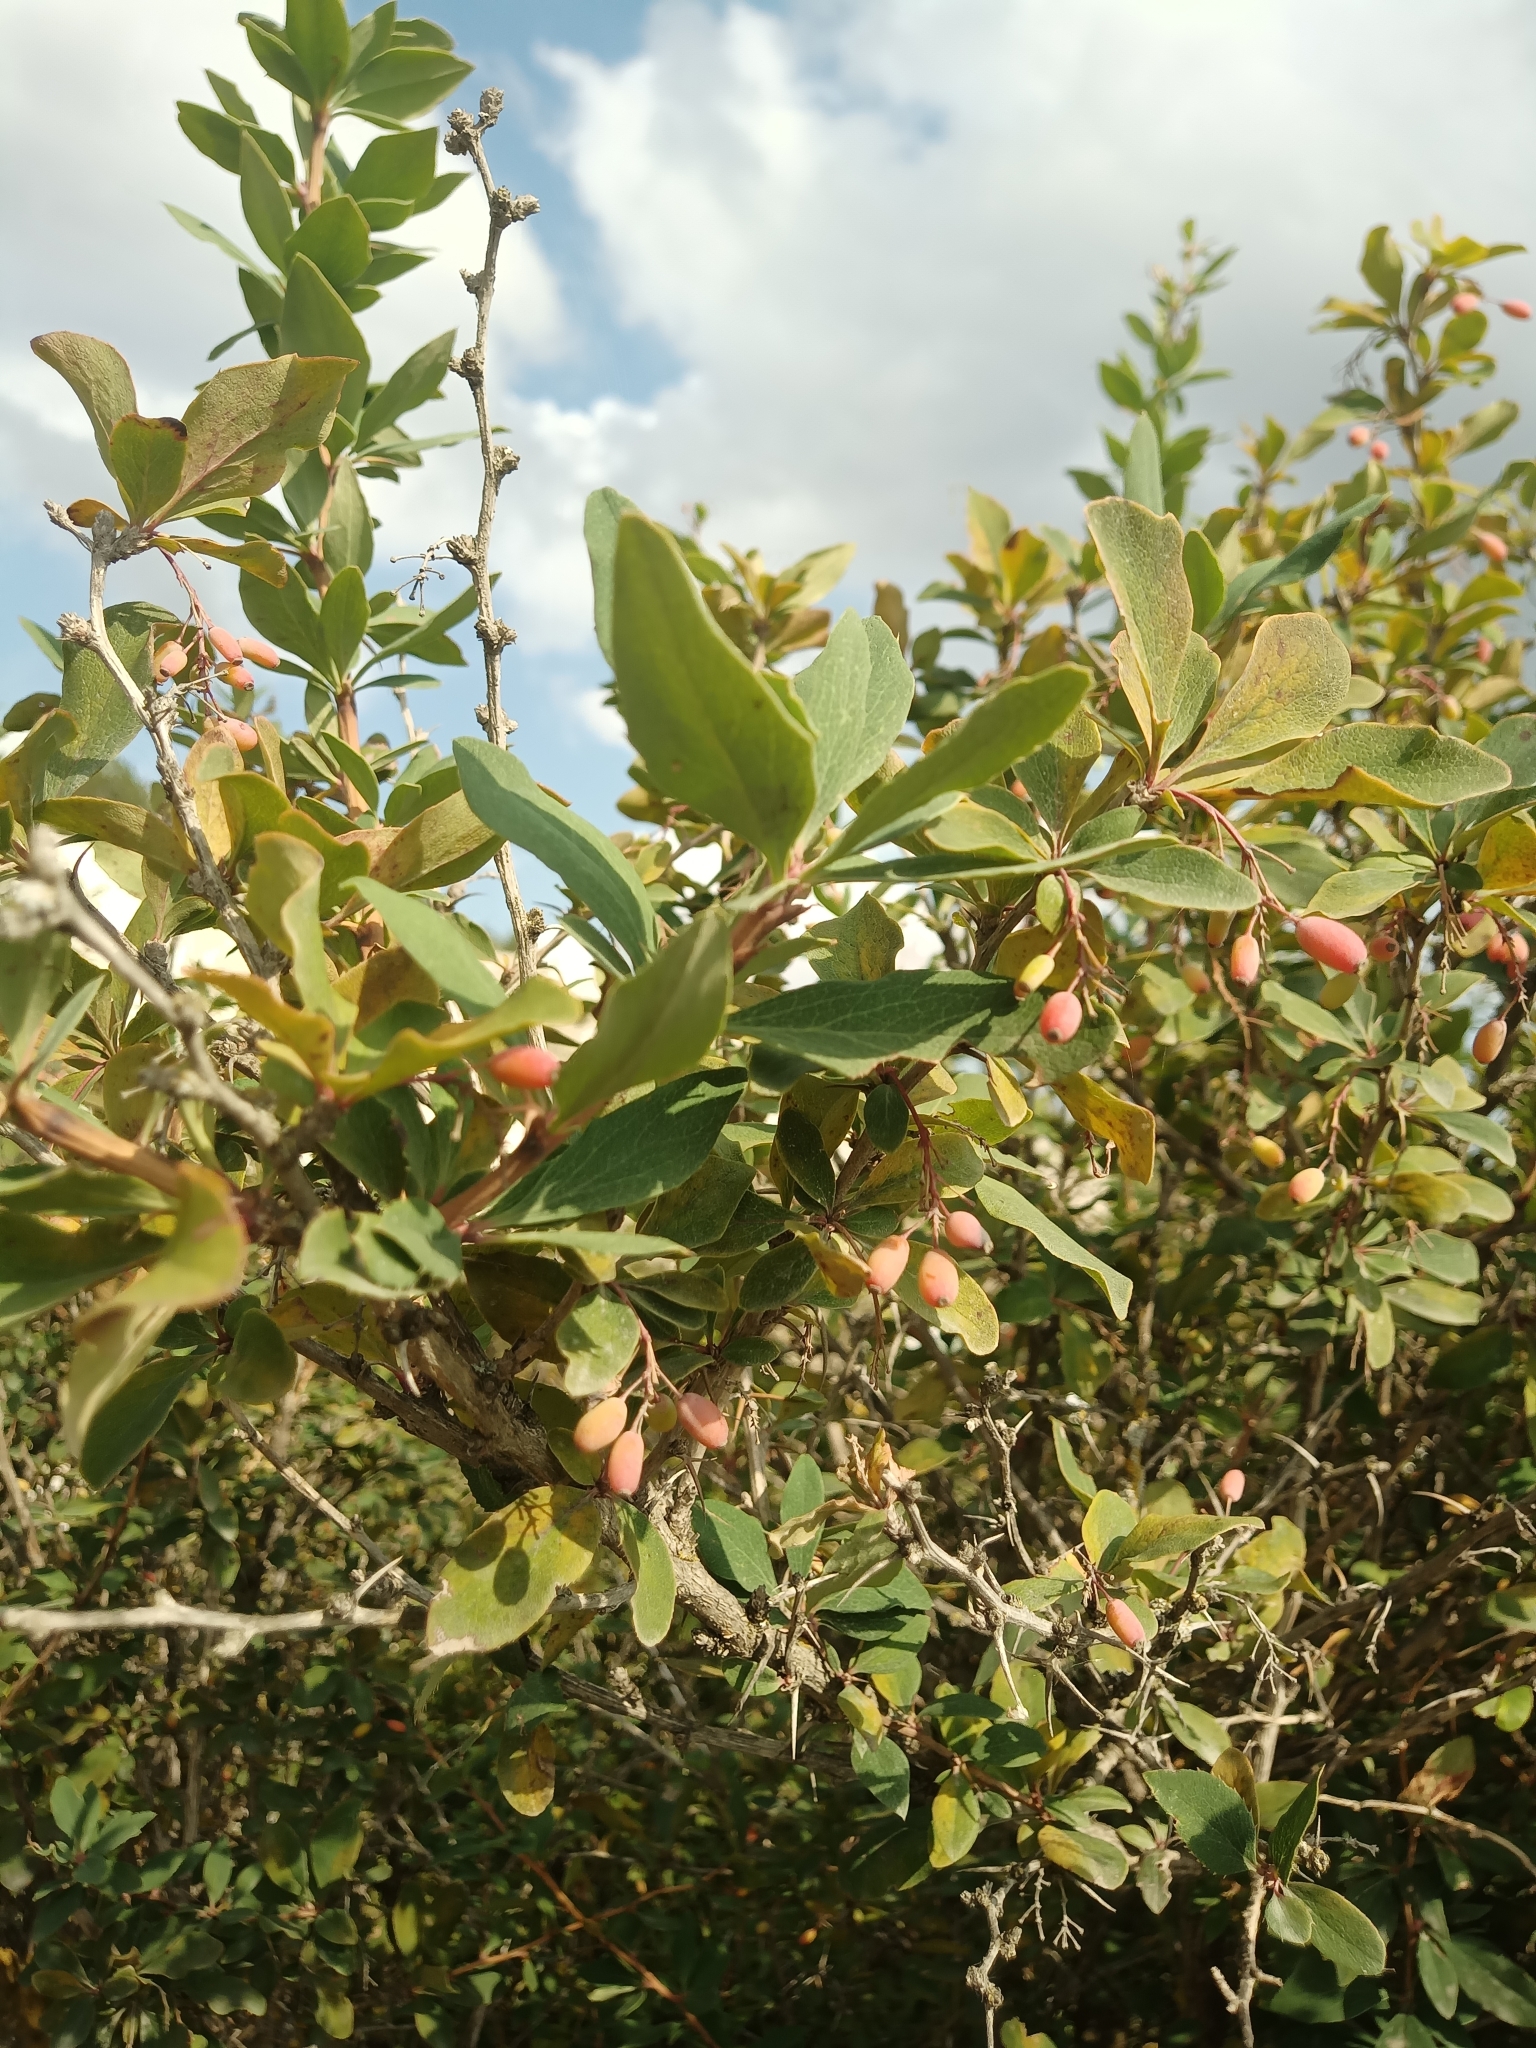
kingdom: Plantae
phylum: Tracheophyta
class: Magnoliopsida
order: Ranunculales
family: Berberidaceae
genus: Berberis
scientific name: Berberis vulgaris
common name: Barberry
